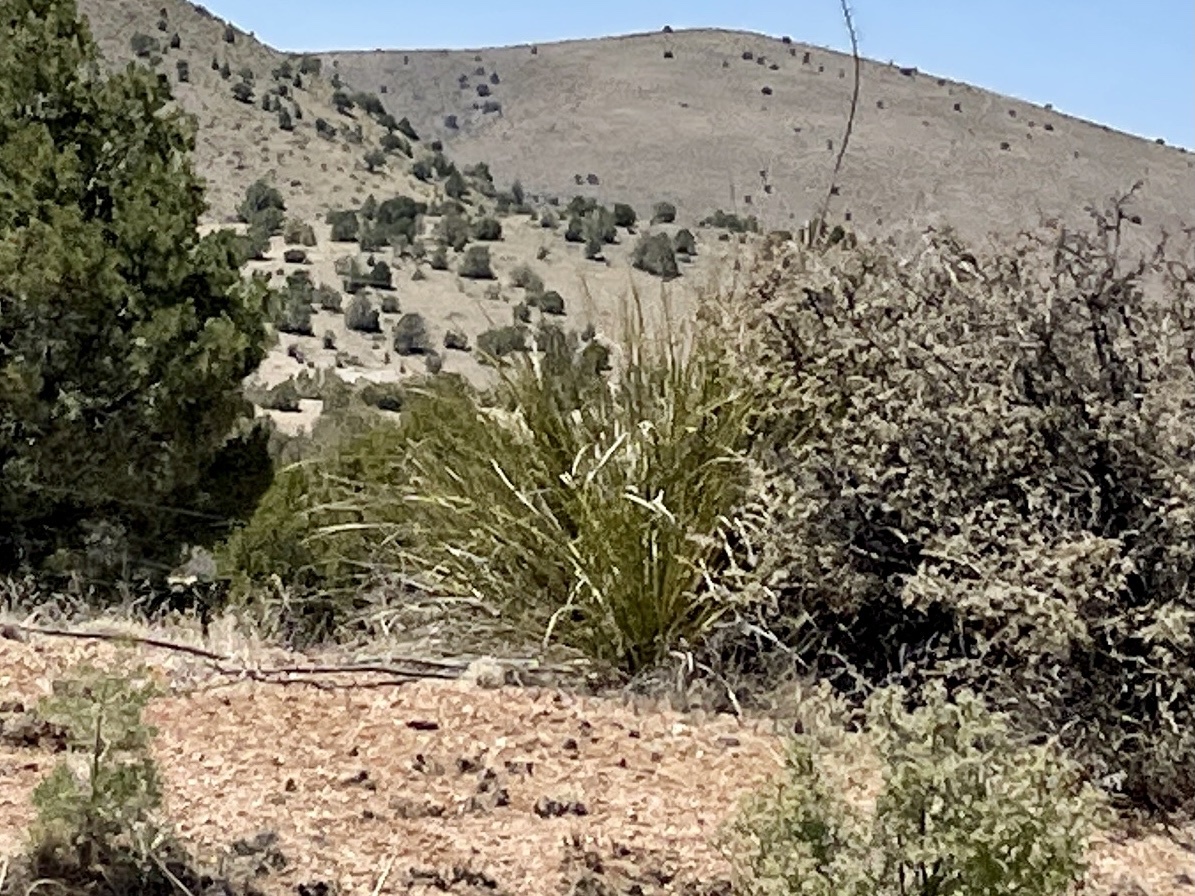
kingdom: Plantae
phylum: Tracheophyta
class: Liliopsida
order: Asparagales
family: Asparagaceae
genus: Nolina
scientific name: Nolina microcarpa
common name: Bear-grass
